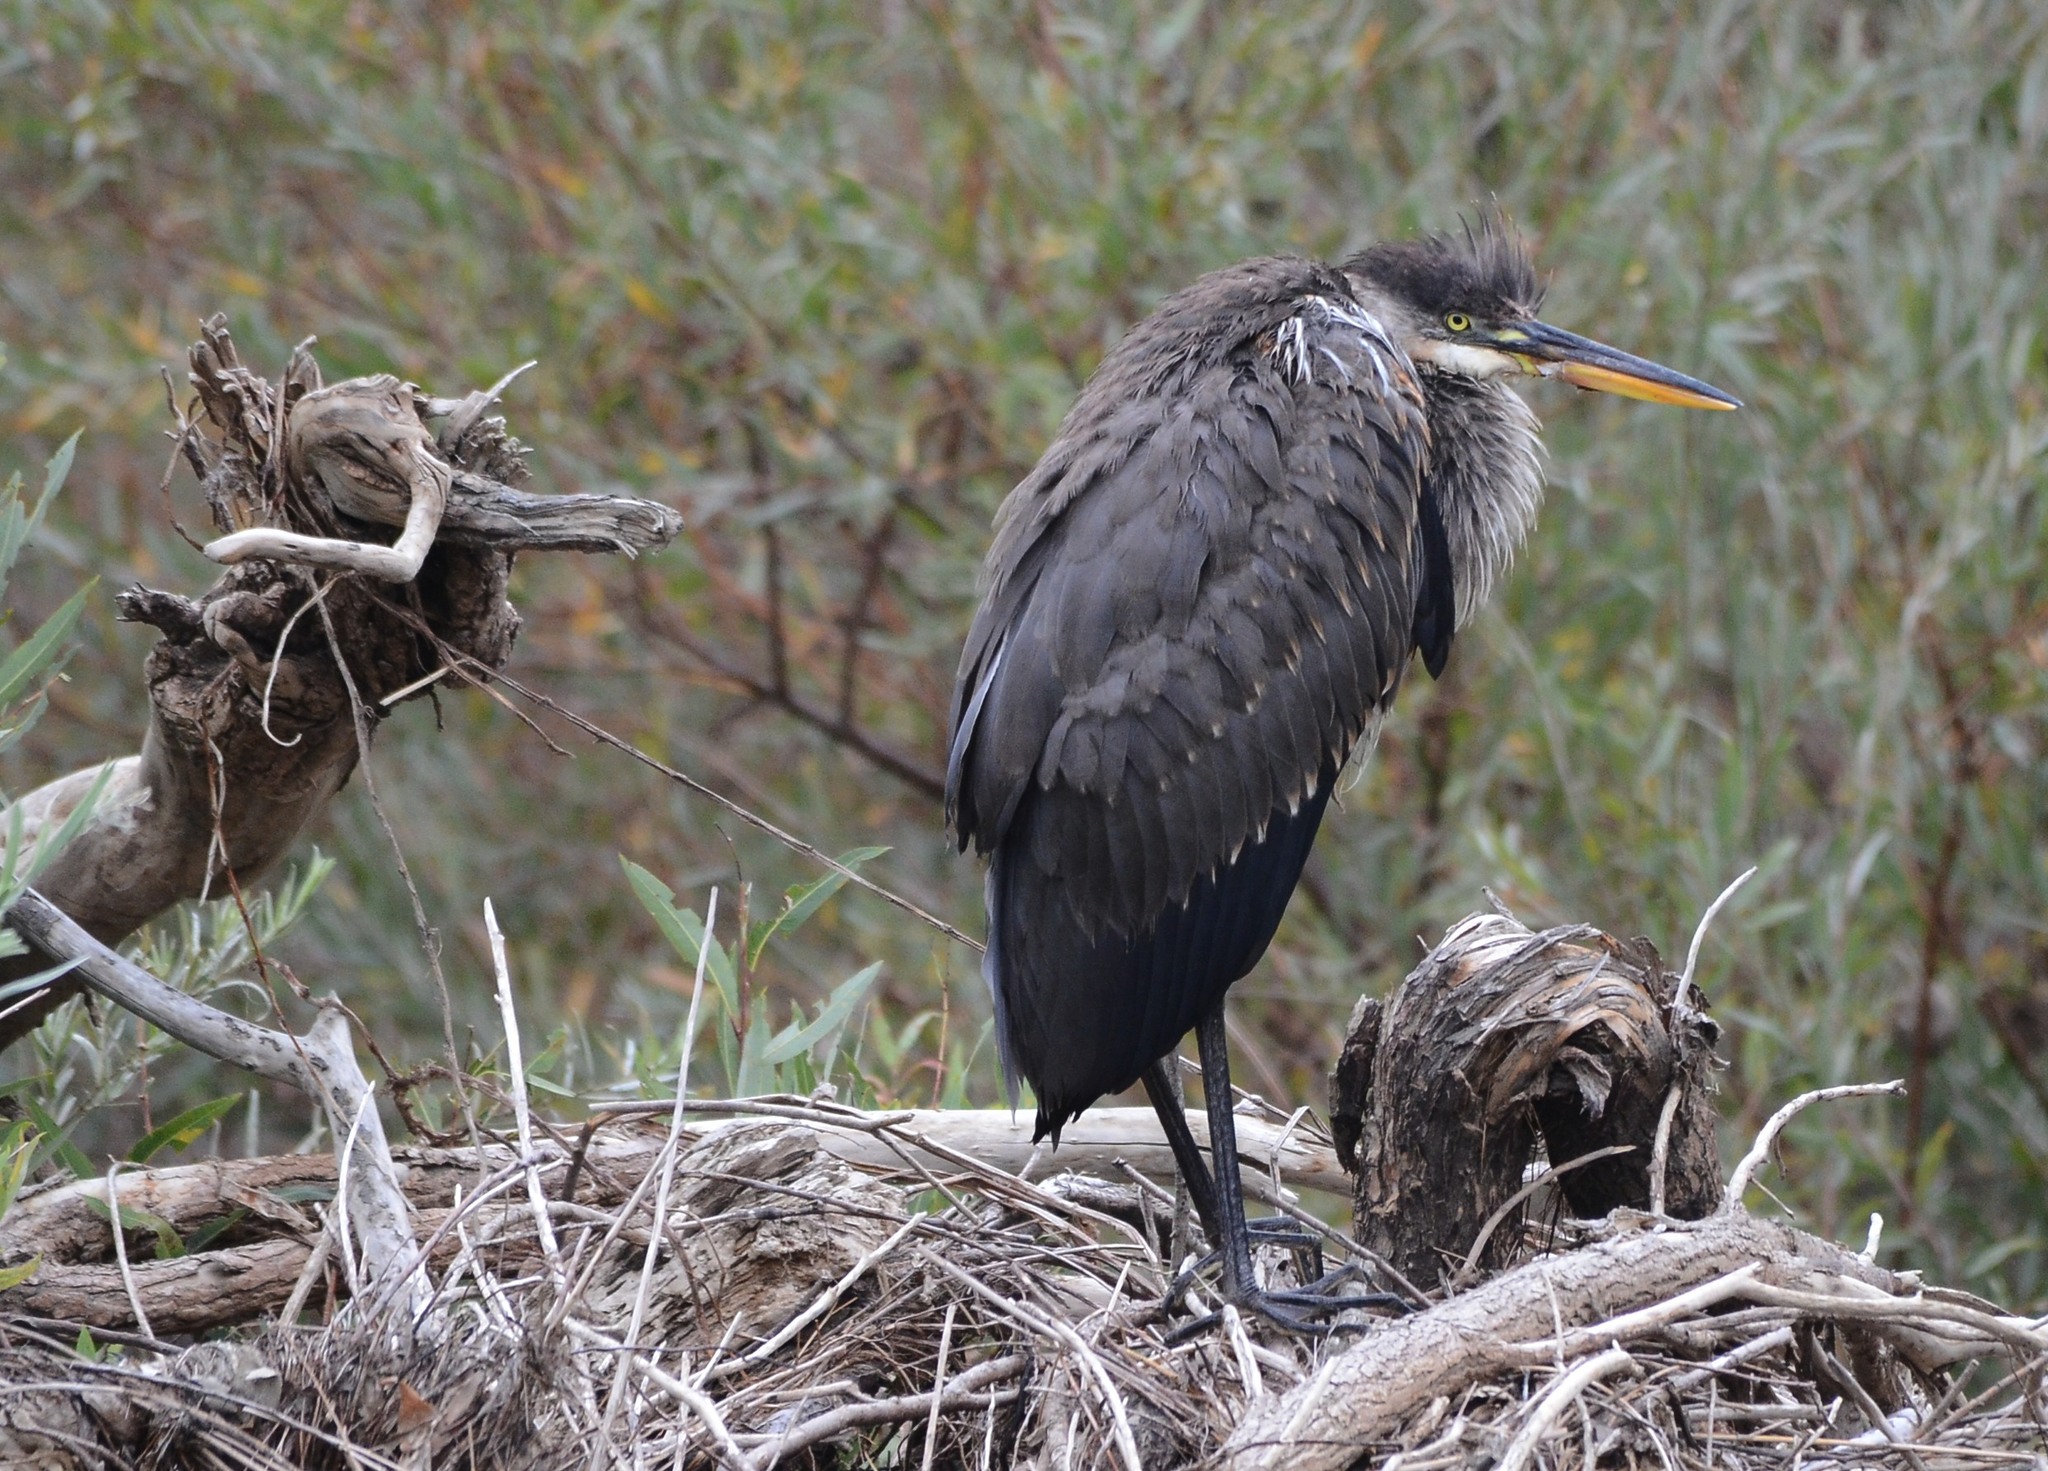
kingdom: Animalia
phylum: Chordata
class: Aves
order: Pelecaniformes
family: Ardeidae
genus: Ardea
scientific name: Ardea herodias
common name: Great blue heron
